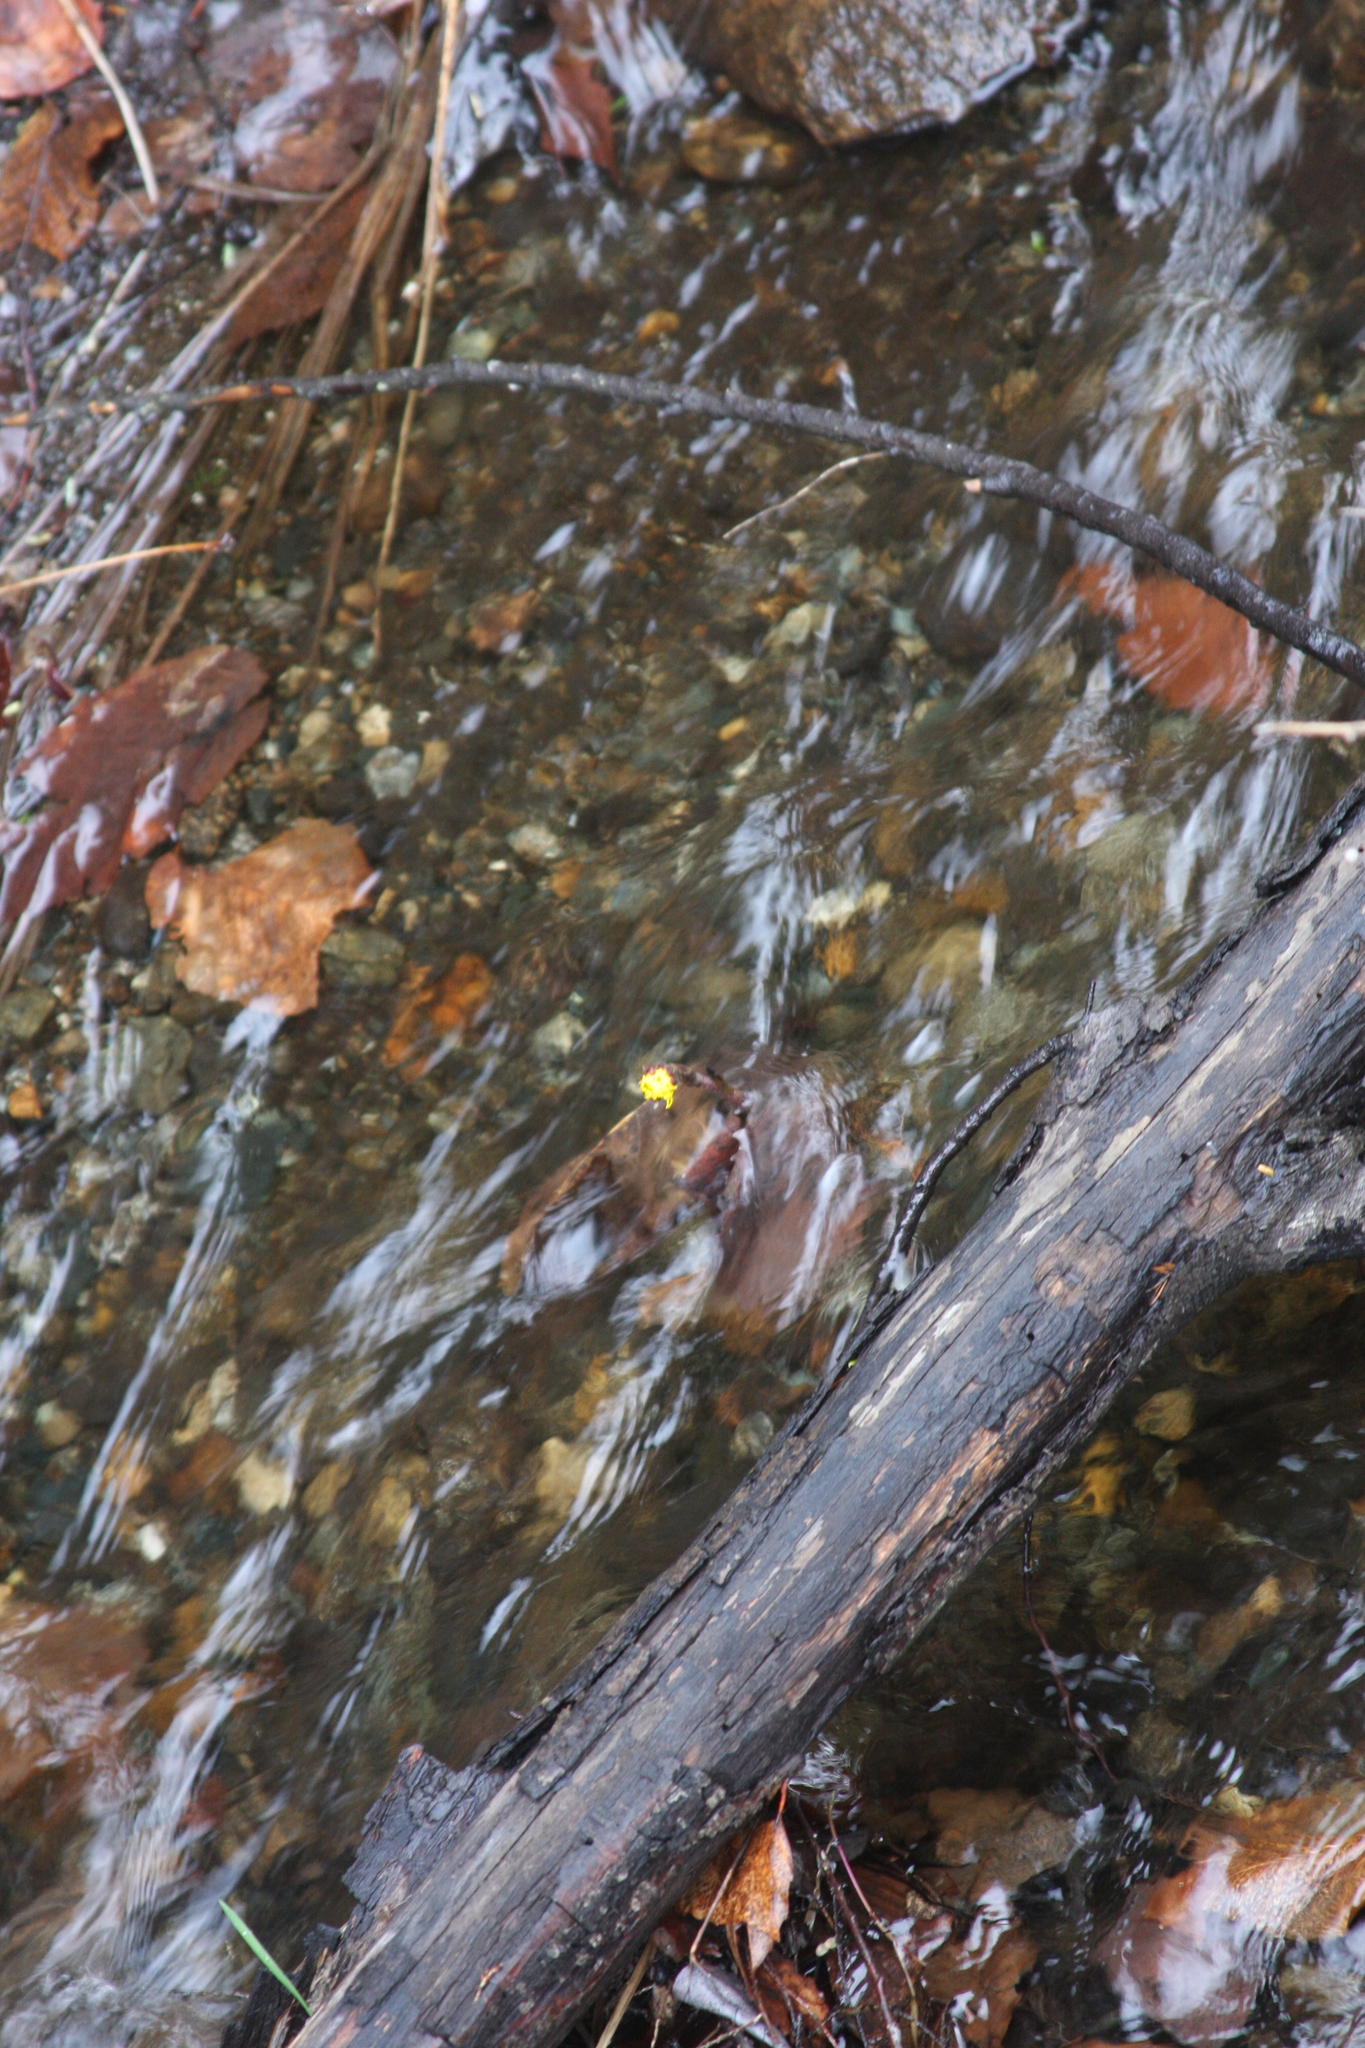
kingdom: Plantae
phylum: Tracheophyta
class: Magnoliopsida
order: Asterales
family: Asteraceae
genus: Tussilago
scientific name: Tussilago farfara
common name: Coltsfoot
